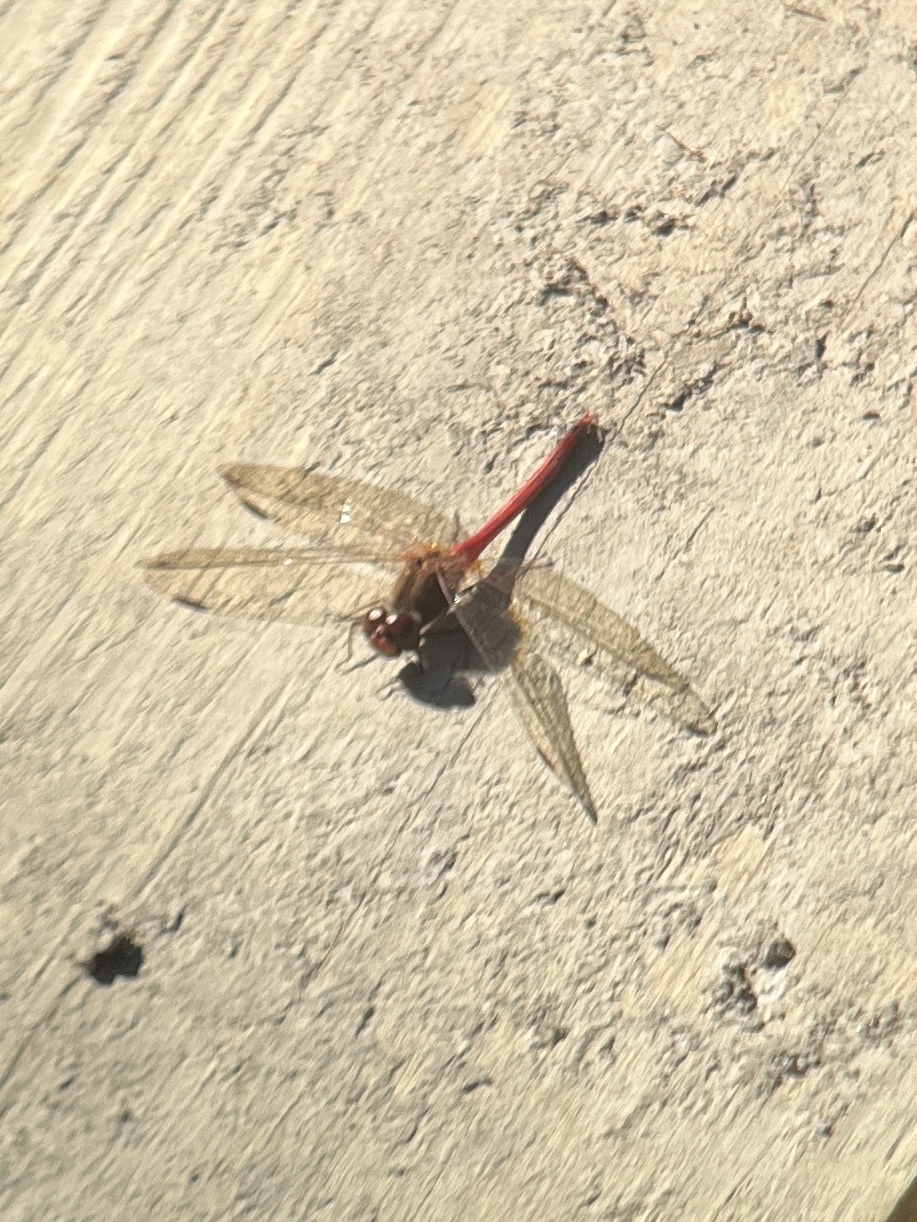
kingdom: Animalia
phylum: Arthropoda
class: Insecta
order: Odonata
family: Libellulidae
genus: Sympetrum
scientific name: Sympetrum vicinum
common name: Autumn meadowhawk
